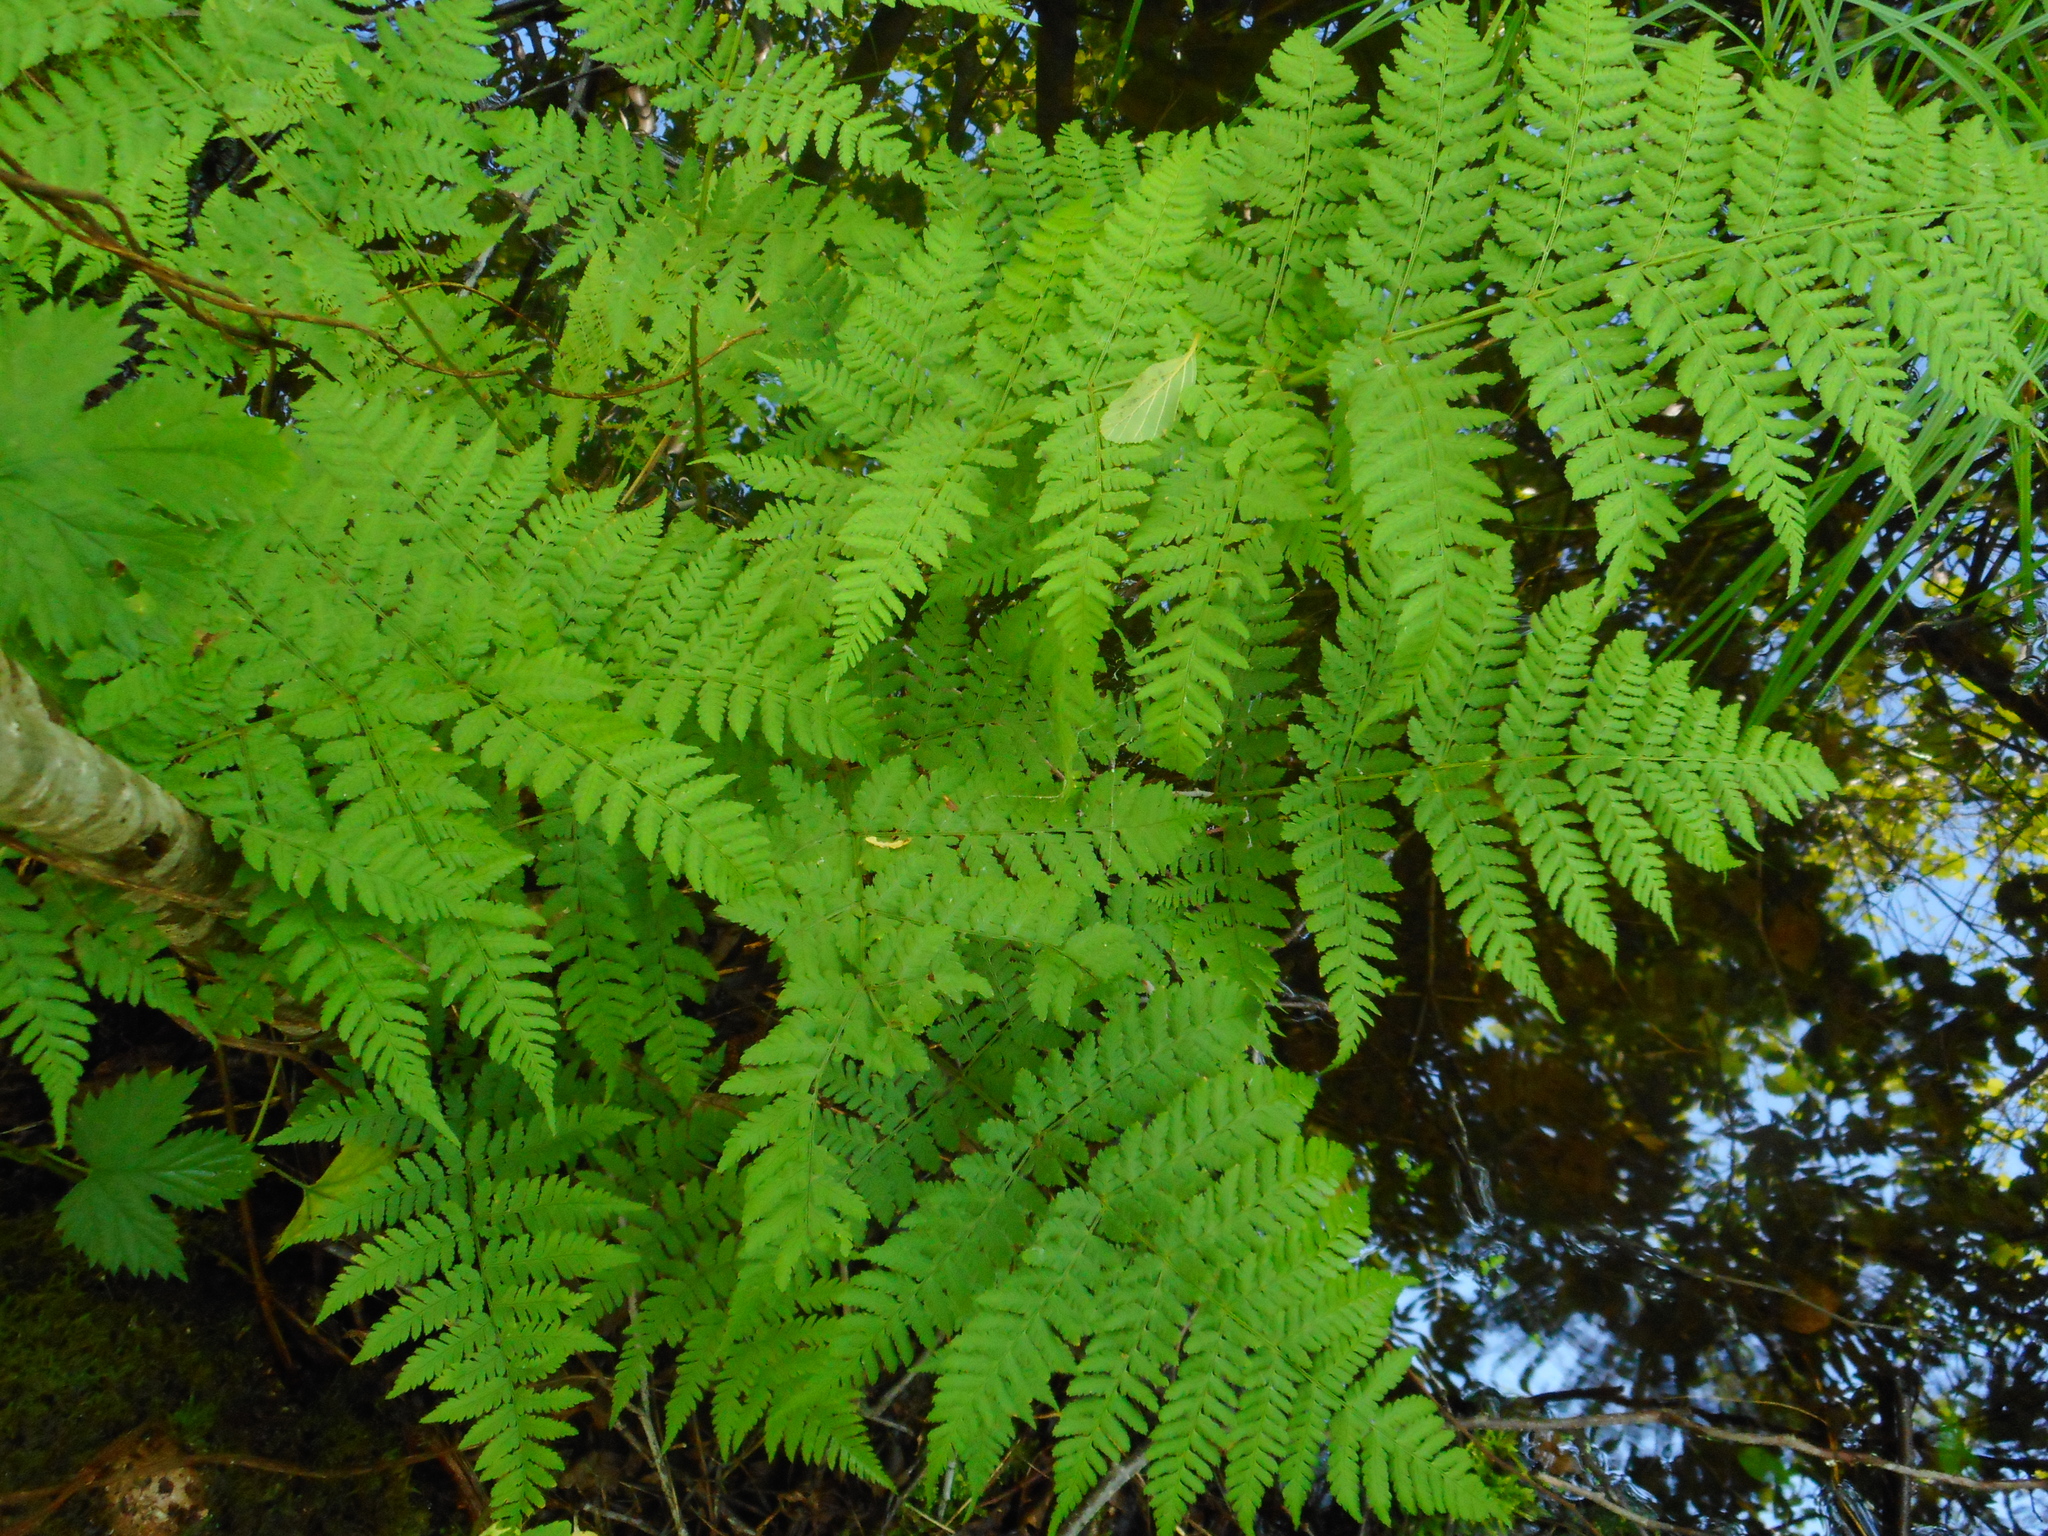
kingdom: Plantae
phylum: Tracheophyta
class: Polypodiopsida
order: Polypodiales
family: Dryopteridaceae
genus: Dryopteris
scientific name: Dryopteris expansa
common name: Northern buckler fern
